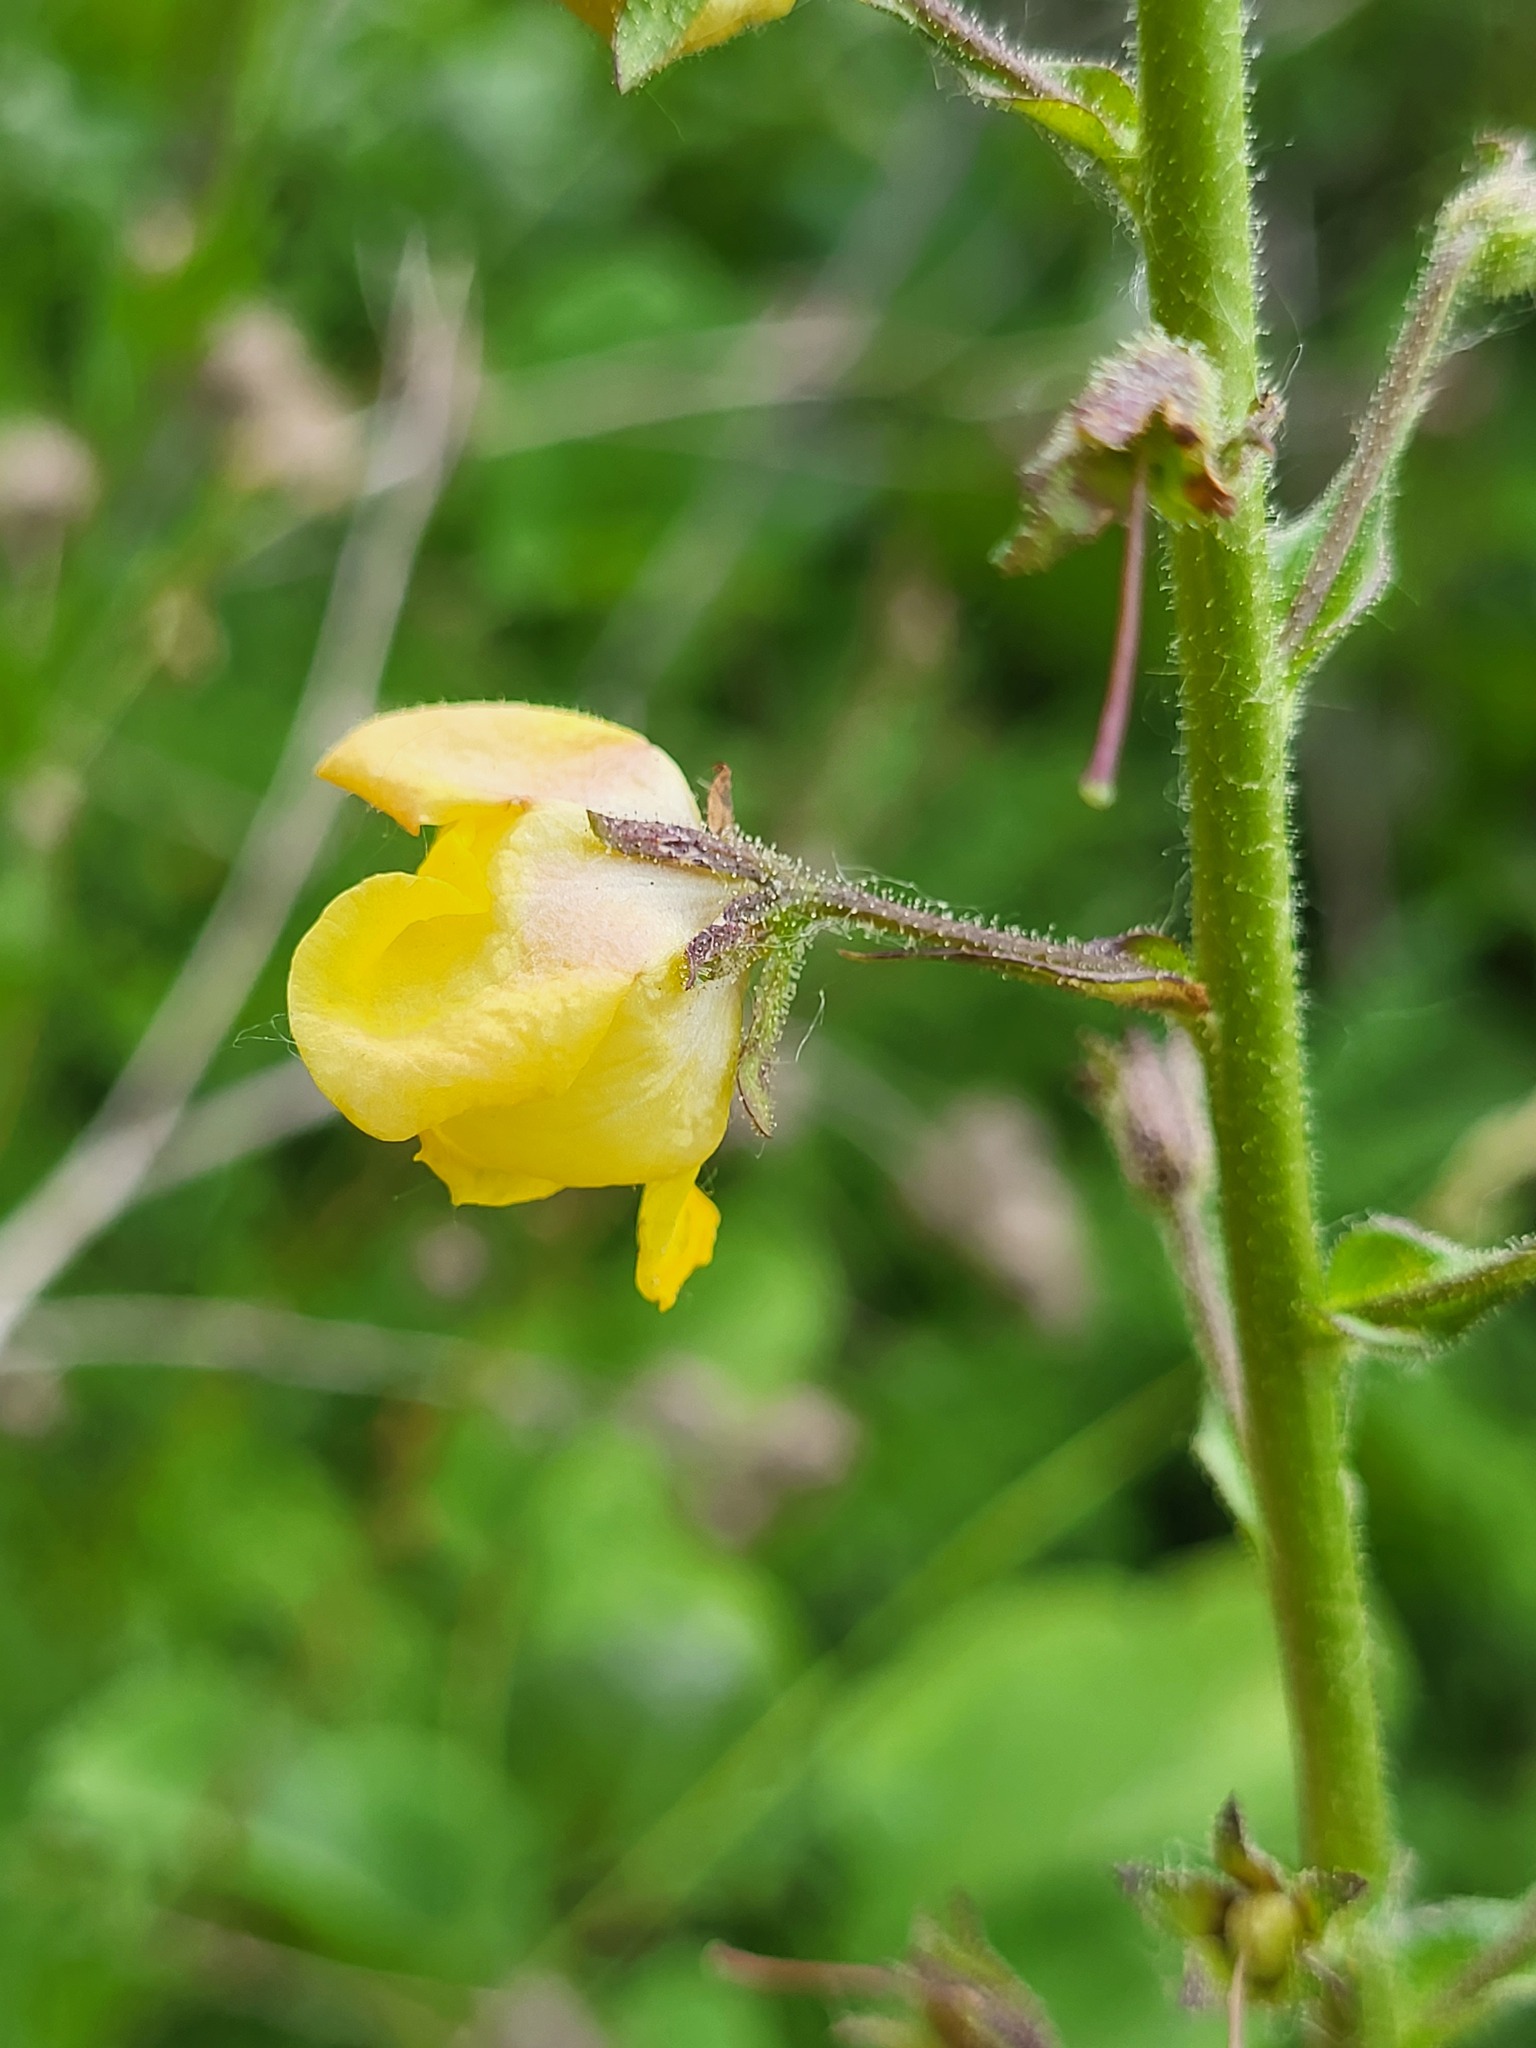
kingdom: Plantae
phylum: Tracheophyta
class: Magnoliopsida
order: Lamiales
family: Scrophulariaceae
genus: Verbascum
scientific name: Verbascum blattaria
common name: Moth mullein
